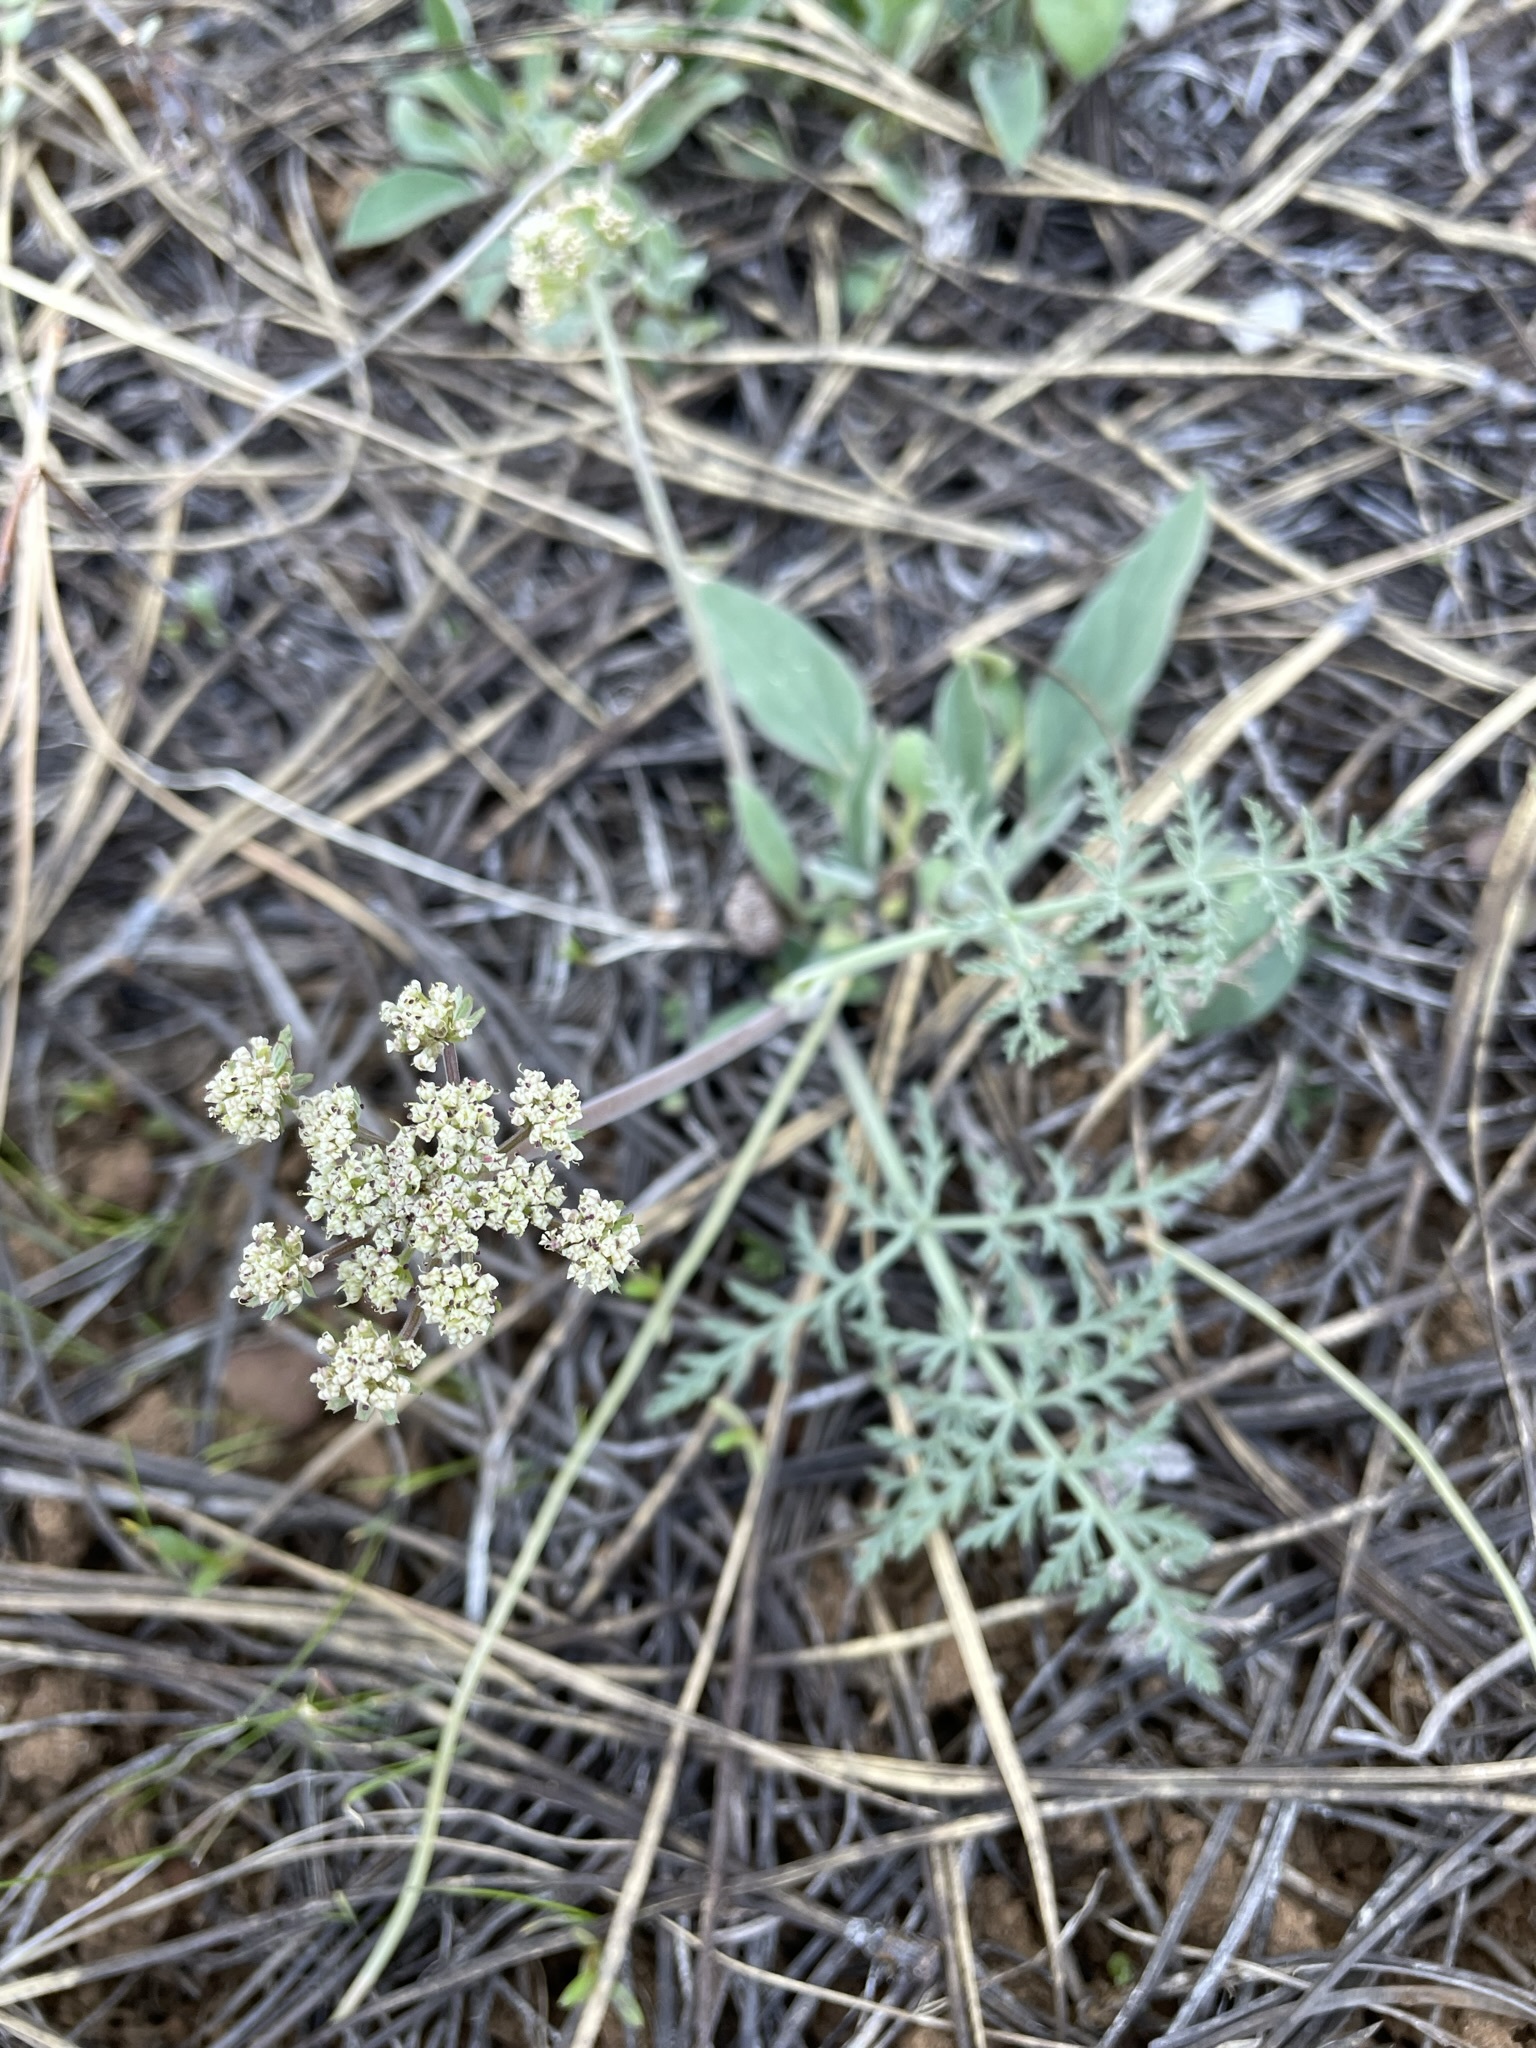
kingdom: Plantae
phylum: Tracheophyta
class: Magnoliopsida
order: Apiales
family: Apiaceae
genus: Lomatium
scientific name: Lomatium nevadense
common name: Nevada lomatium
